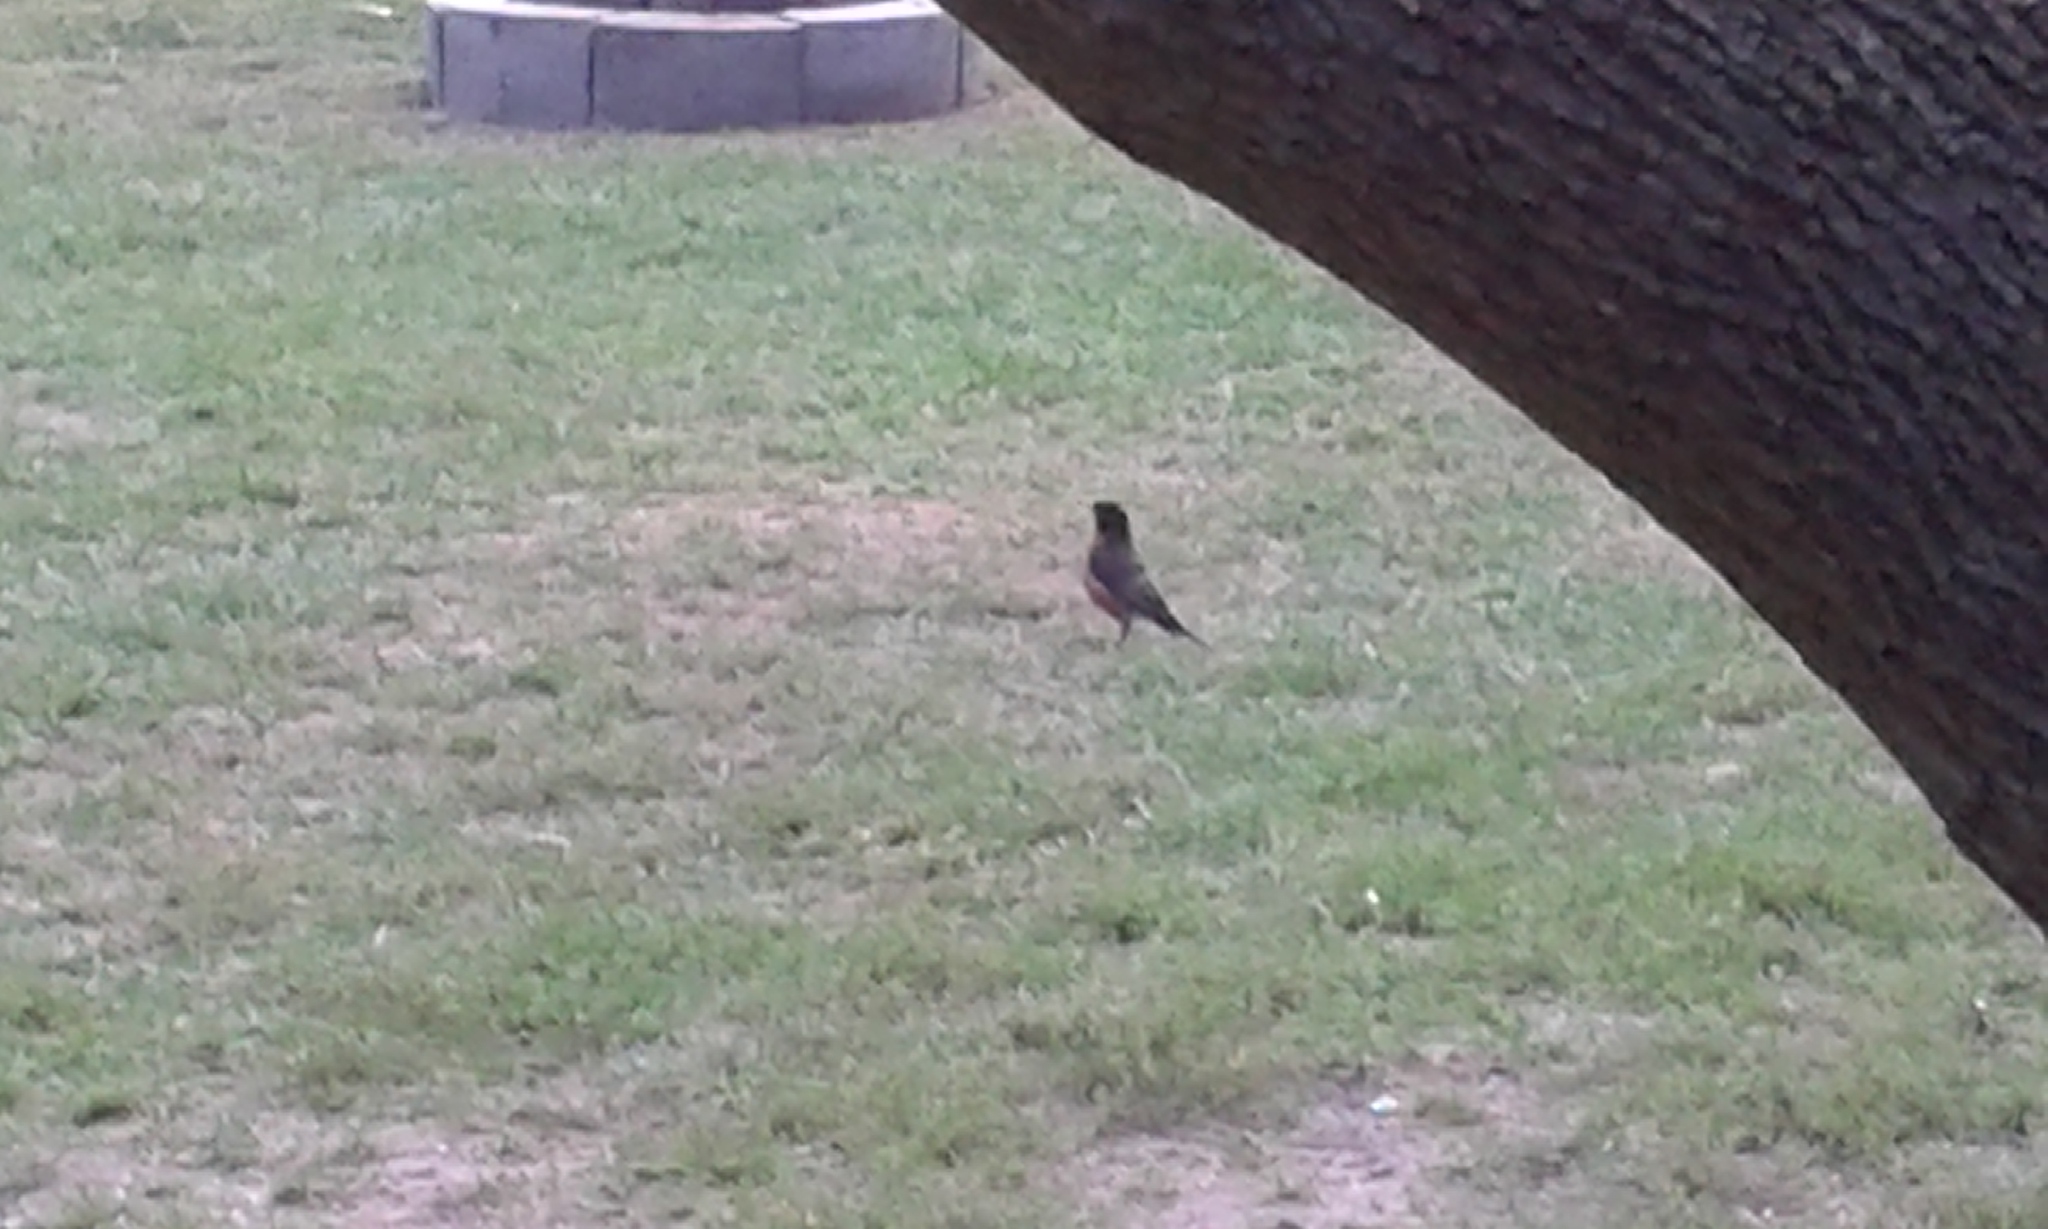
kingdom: Animalia
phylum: Chordata
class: Aves
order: Passeriformes
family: Turdidae
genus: Turdus
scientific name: Turdus migratorius
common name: American robin
